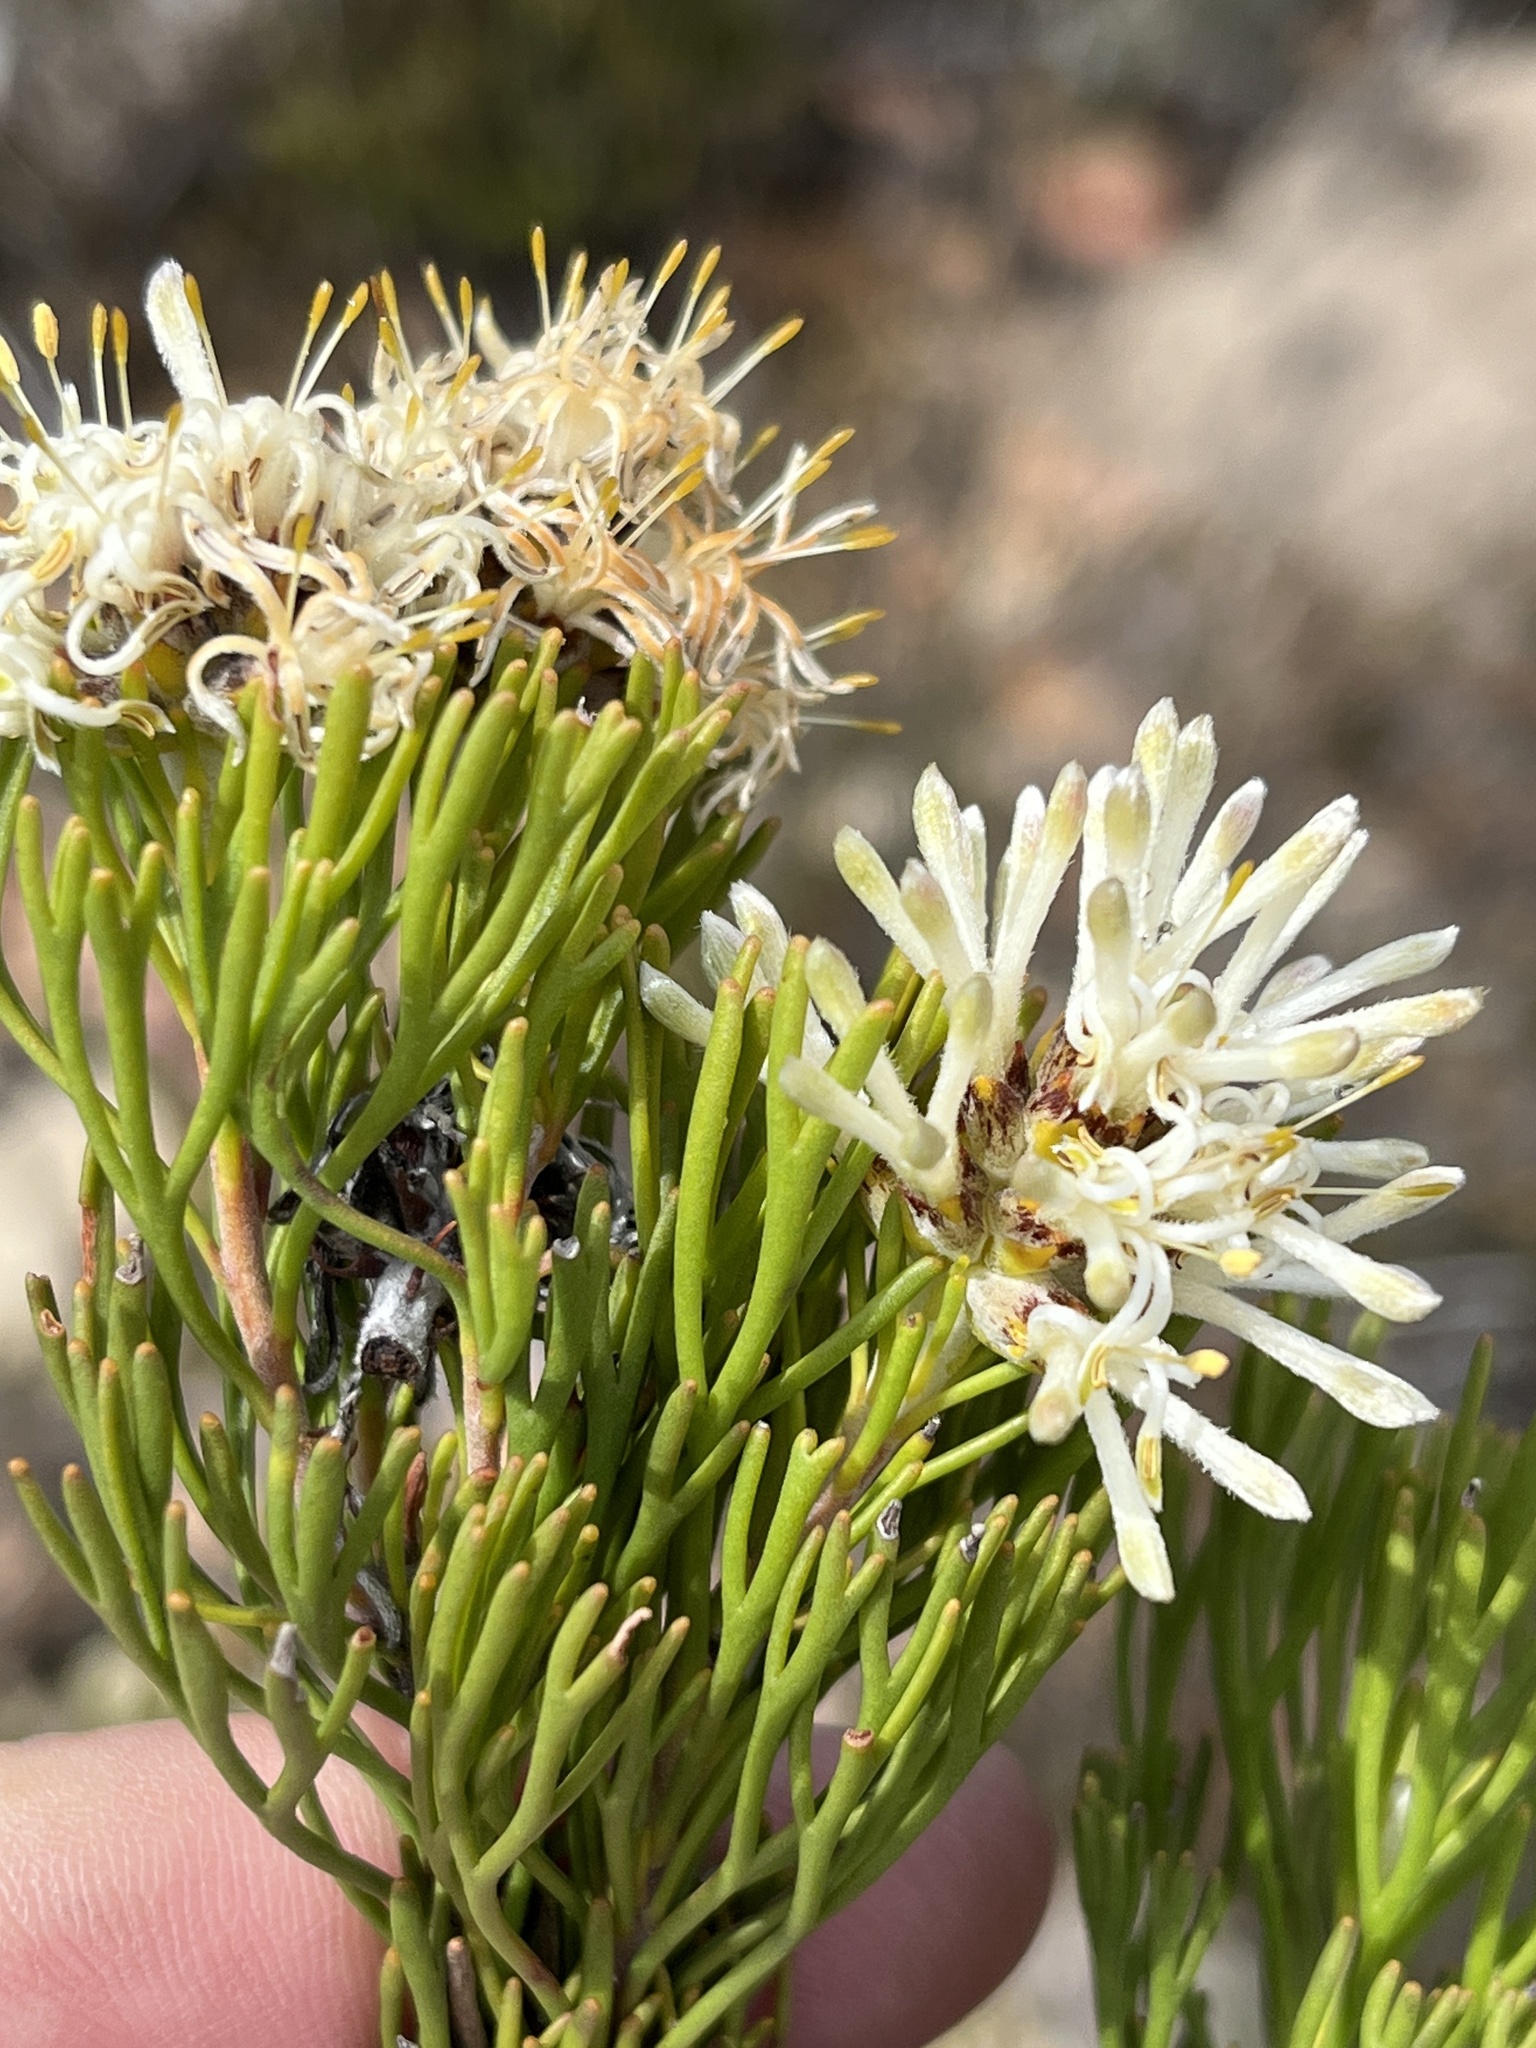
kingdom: Plantae
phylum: Tracheophyta
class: Magnoliopsida
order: Proteales
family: Proteaceae
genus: Paranomus
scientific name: Paranomus esterhuyseniae
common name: Kouga sceptre
